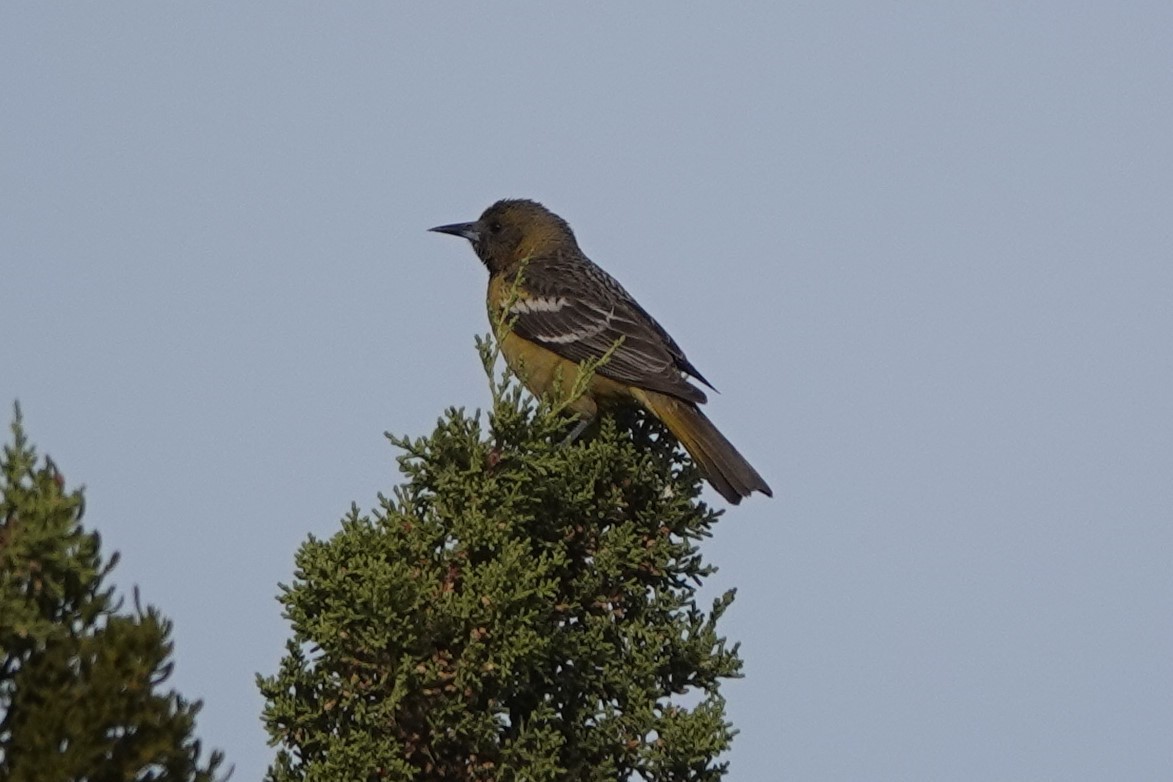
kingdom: Animalia
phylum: Chordata
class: Aves
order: Passeriformes
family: Icteridae
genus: Icterus
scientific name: Icterus parisorum
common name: Scott's oriole
